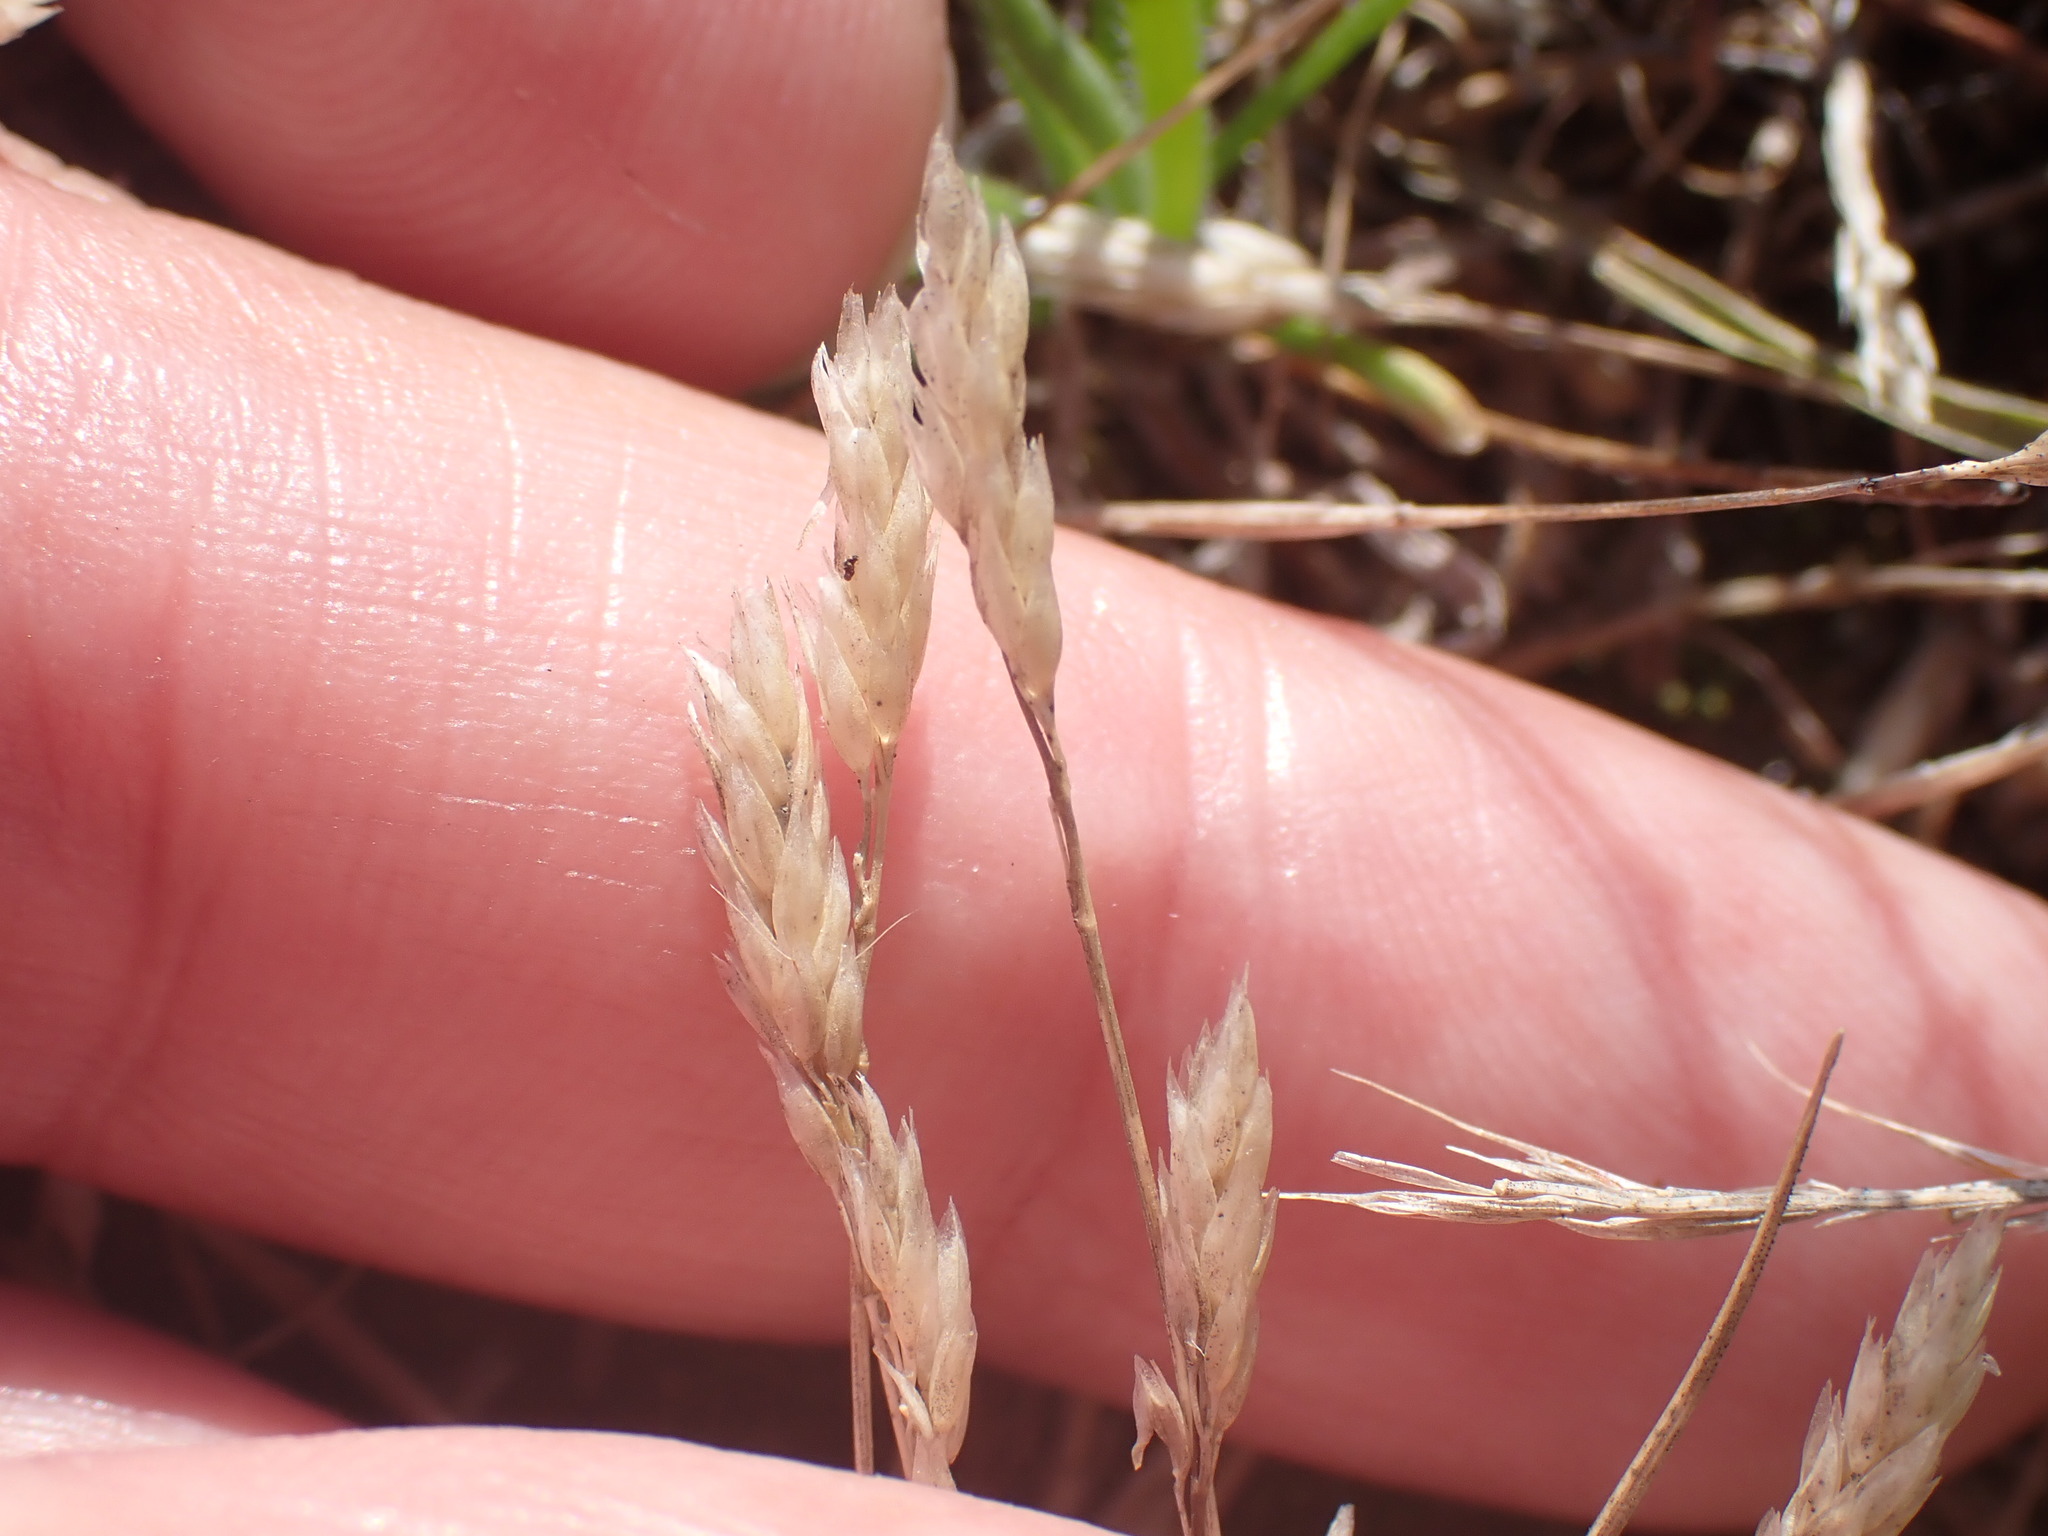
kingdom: Plantae
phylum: Tracheophyta
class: Liliopsida
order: Poales
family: Poaceae
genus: Aira
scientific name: Aira praecox
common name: Early hair-grass
